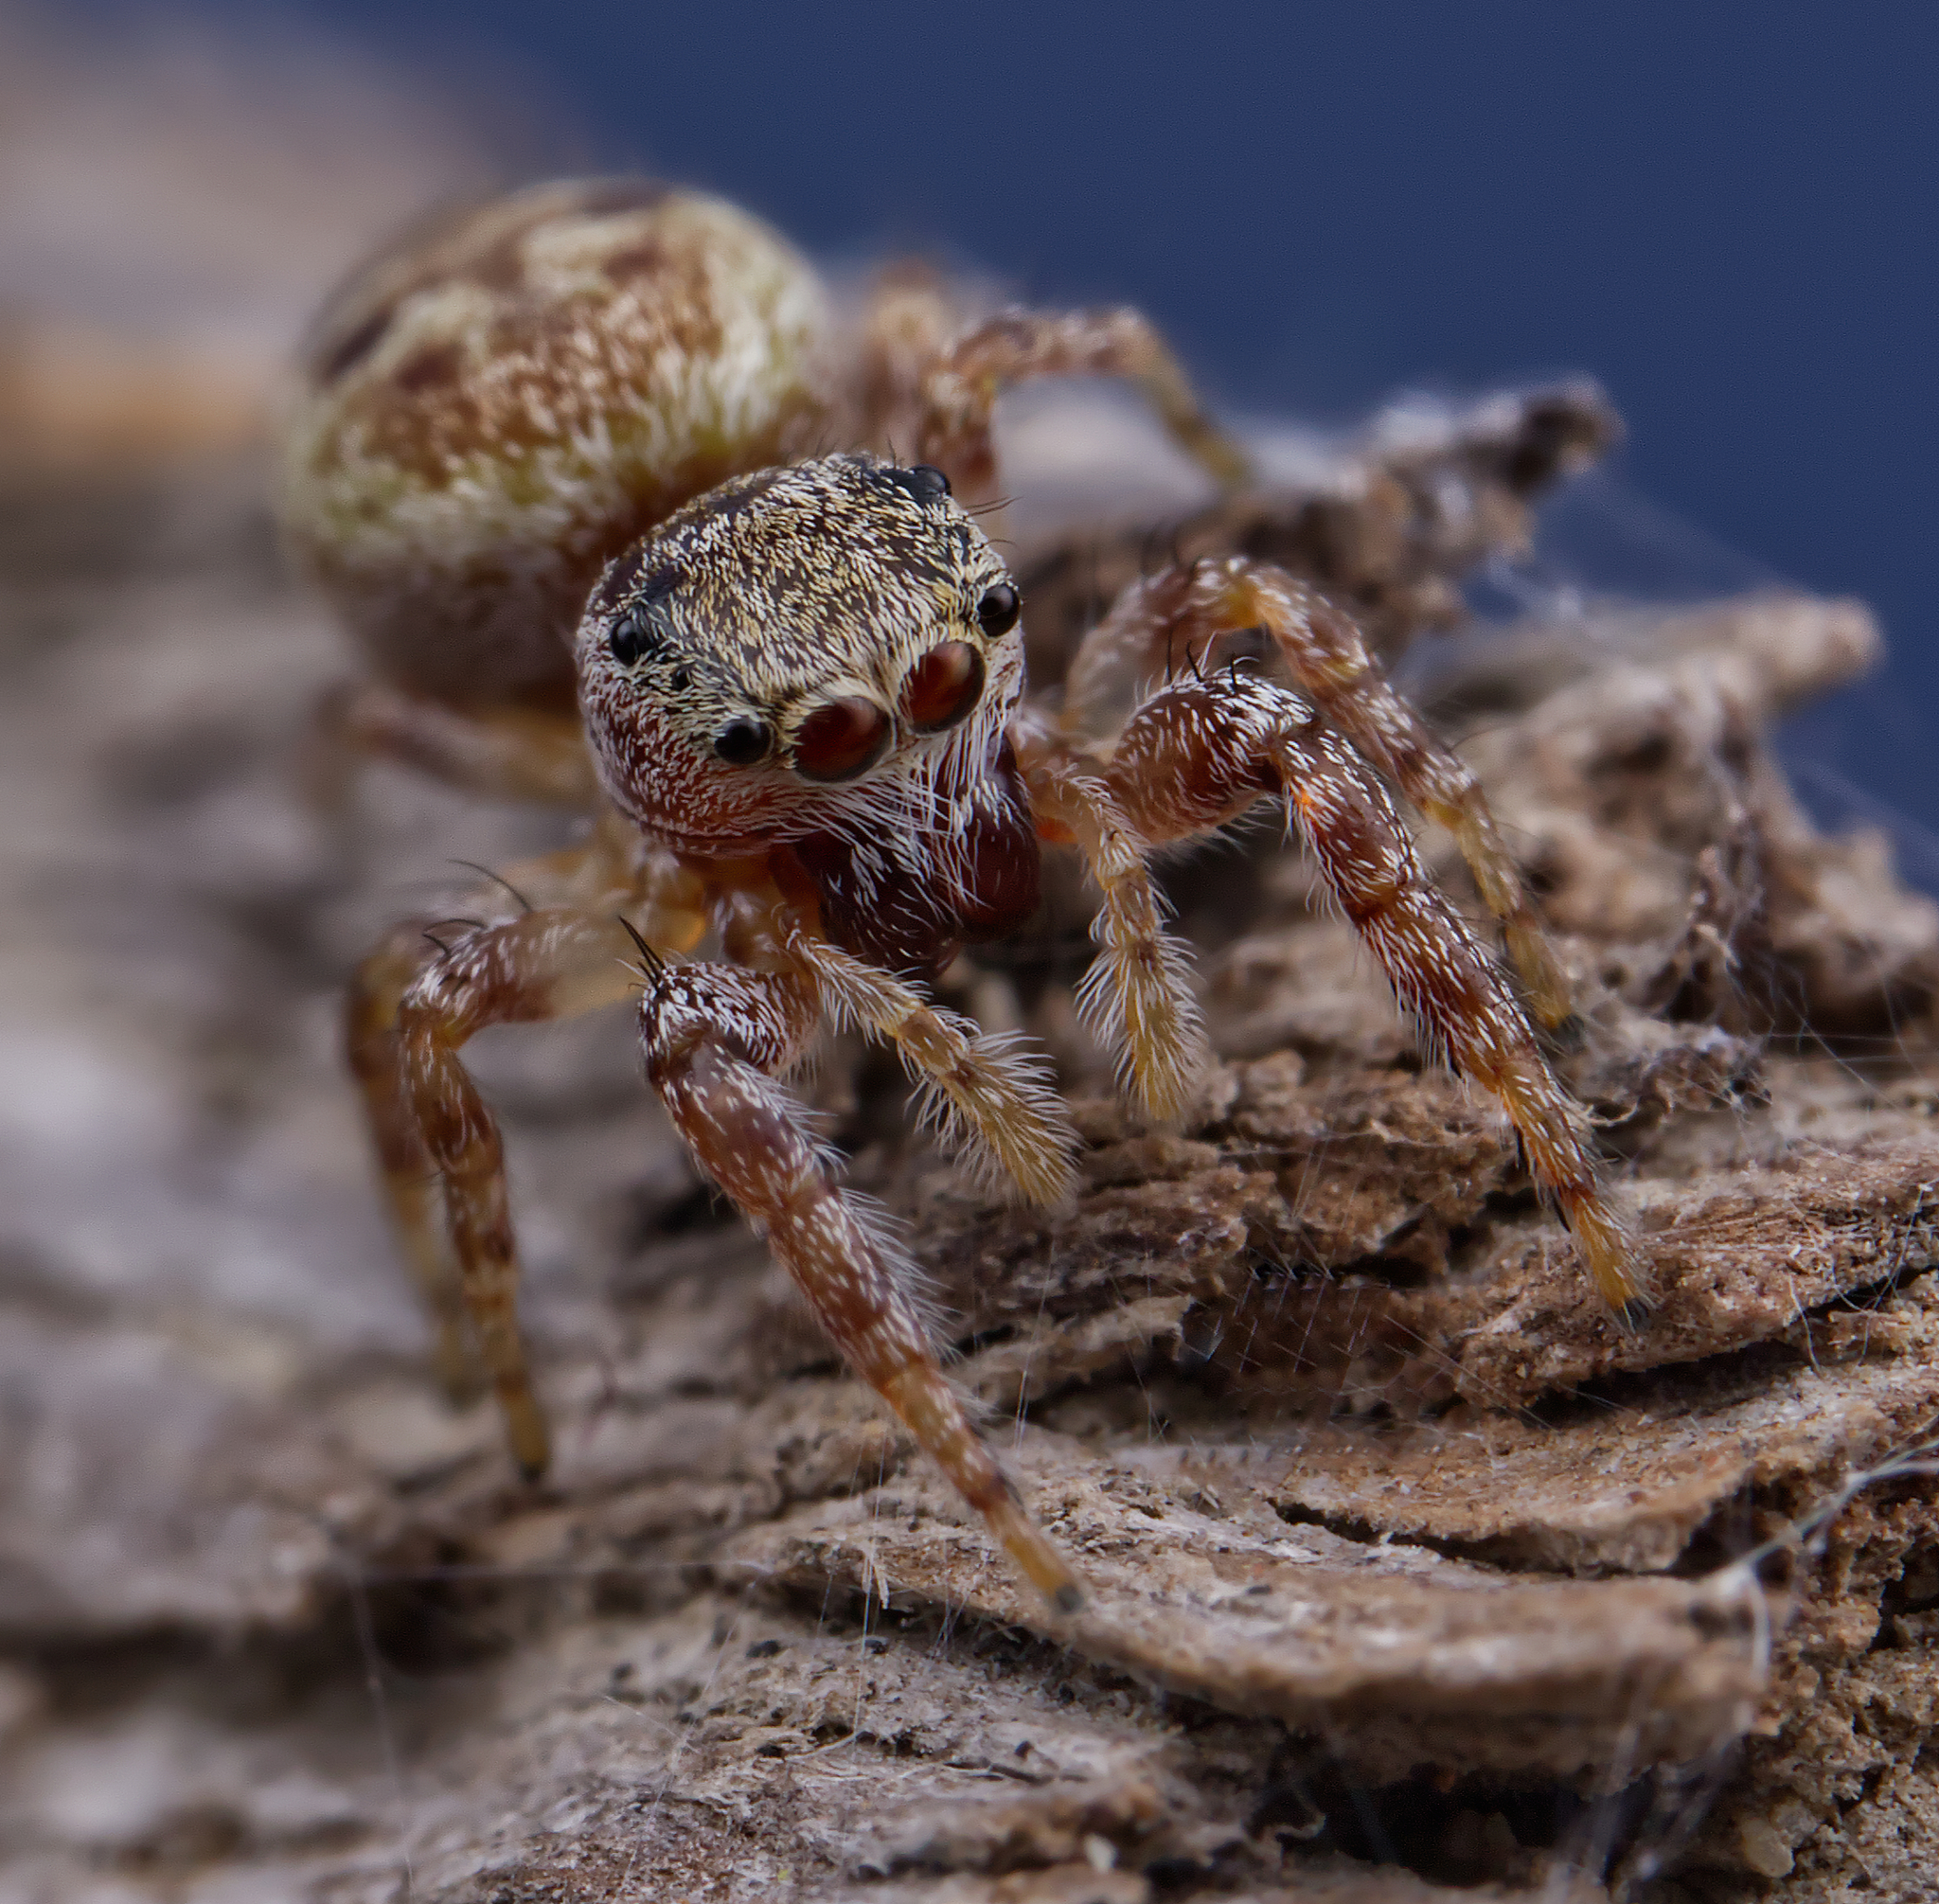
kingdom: Animalia
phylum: Arthropoda
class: Arachnida
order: Araneae
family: Salticidae
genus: Pelegrina
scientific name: Pelegrina proterva
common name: Common white-cheeked jumping spider
